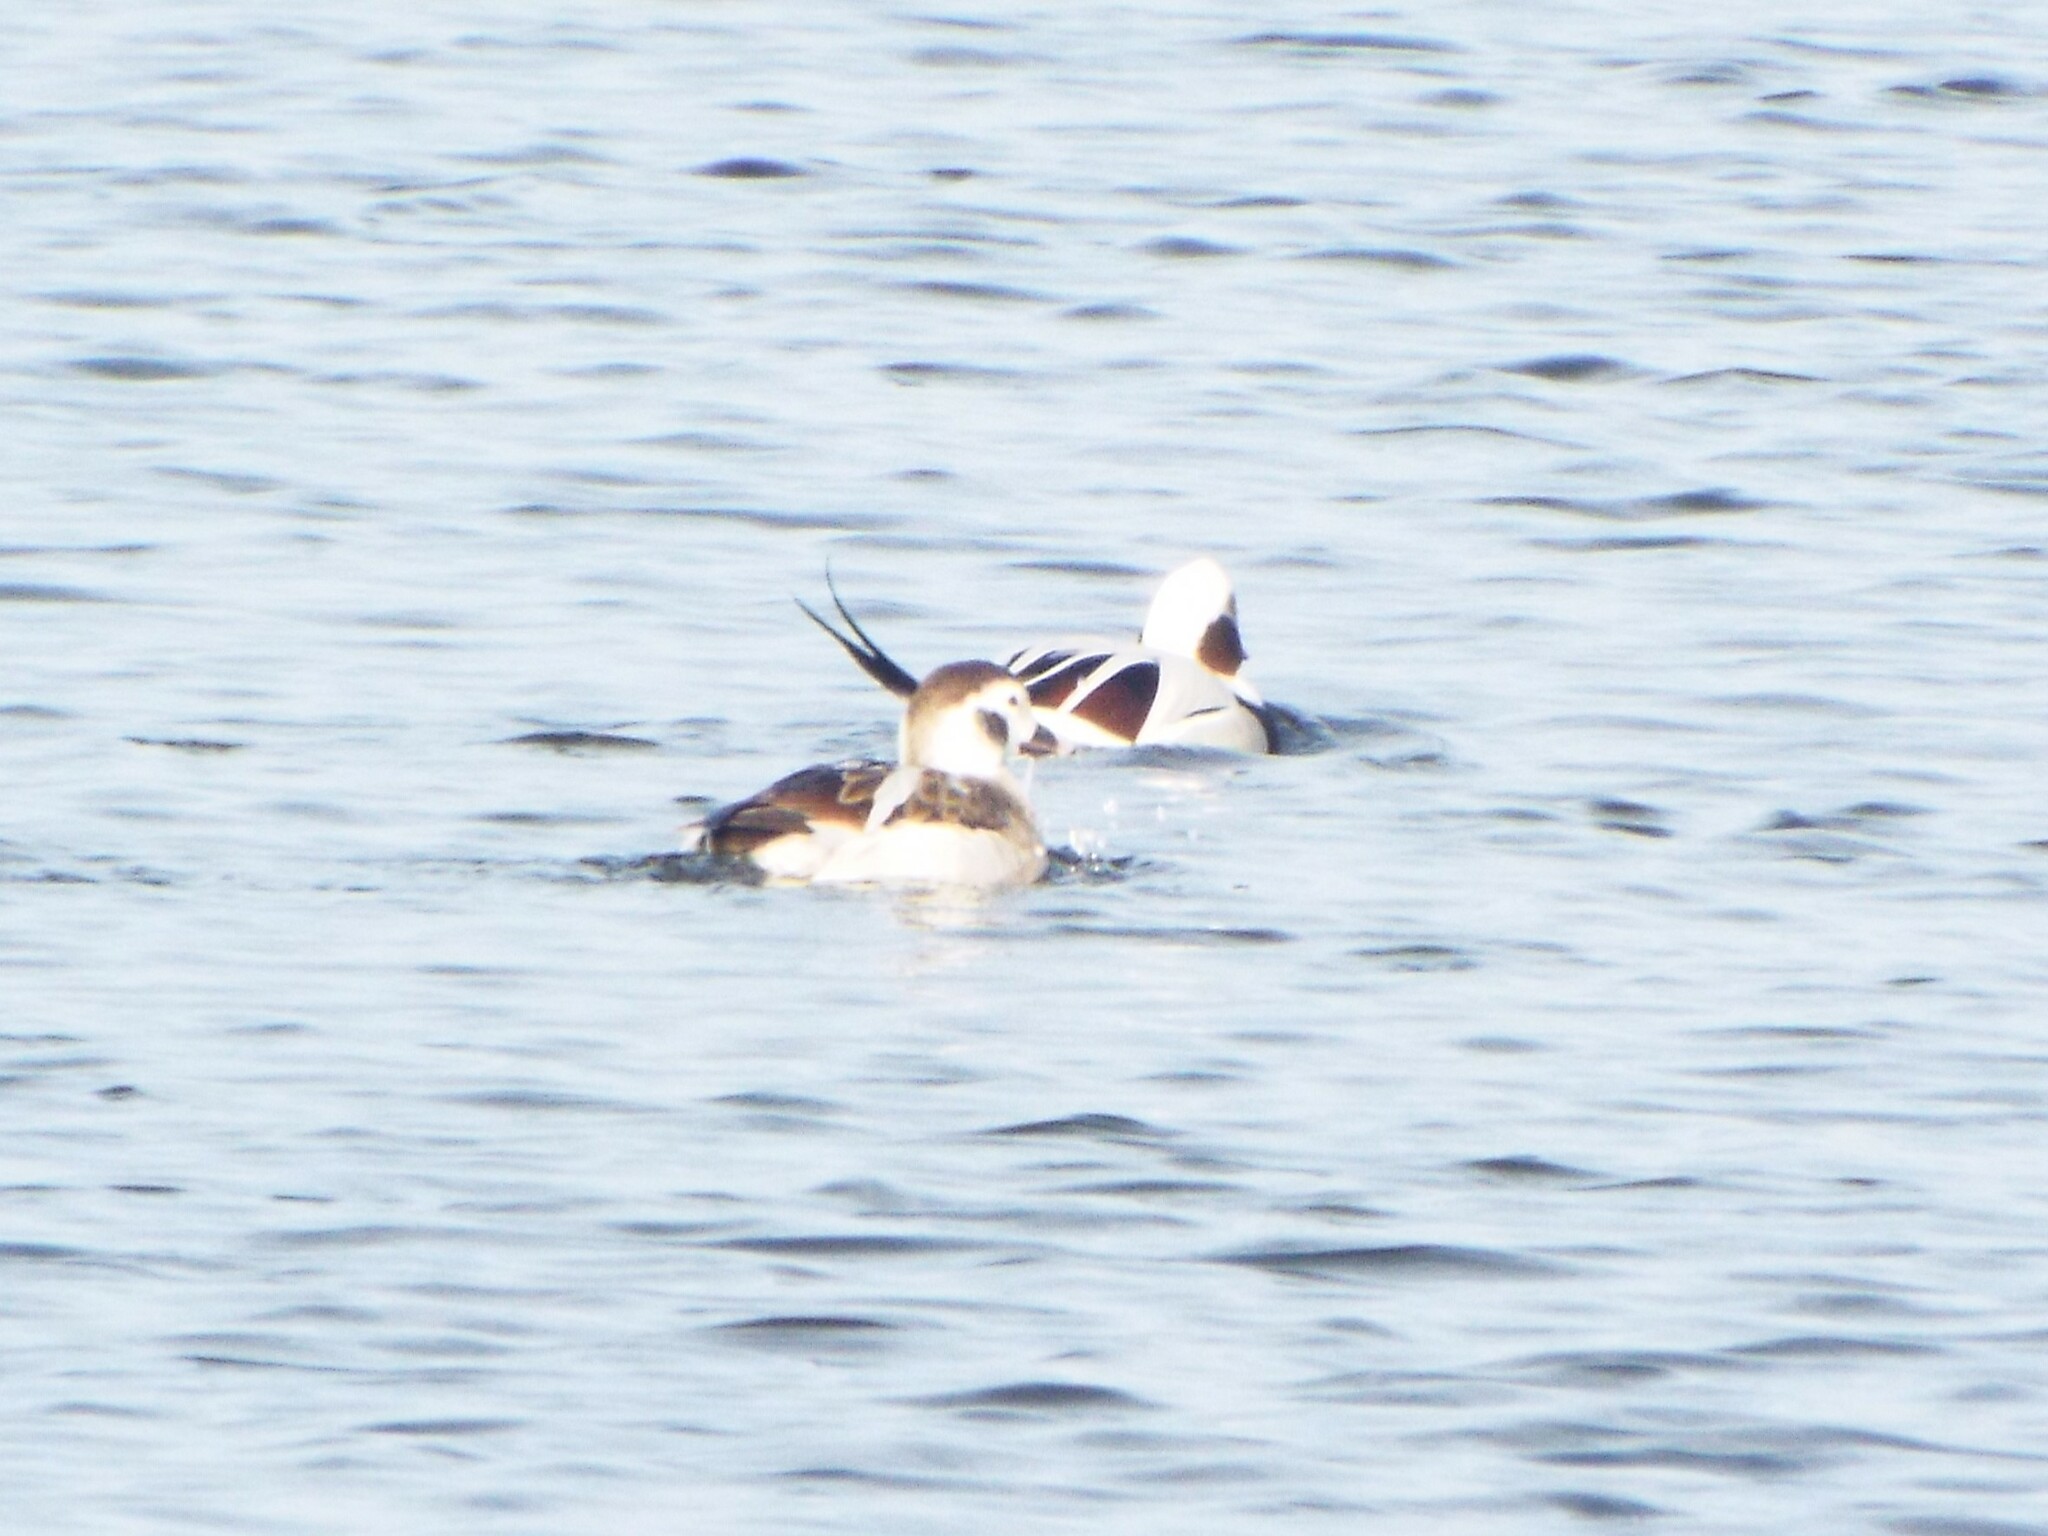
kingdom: Animalia
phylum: Chordata
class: Aves
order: Anseriformes
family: Anatidae
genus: Clangula
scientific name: Clangula hyemalis
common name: Long-tailed duck
